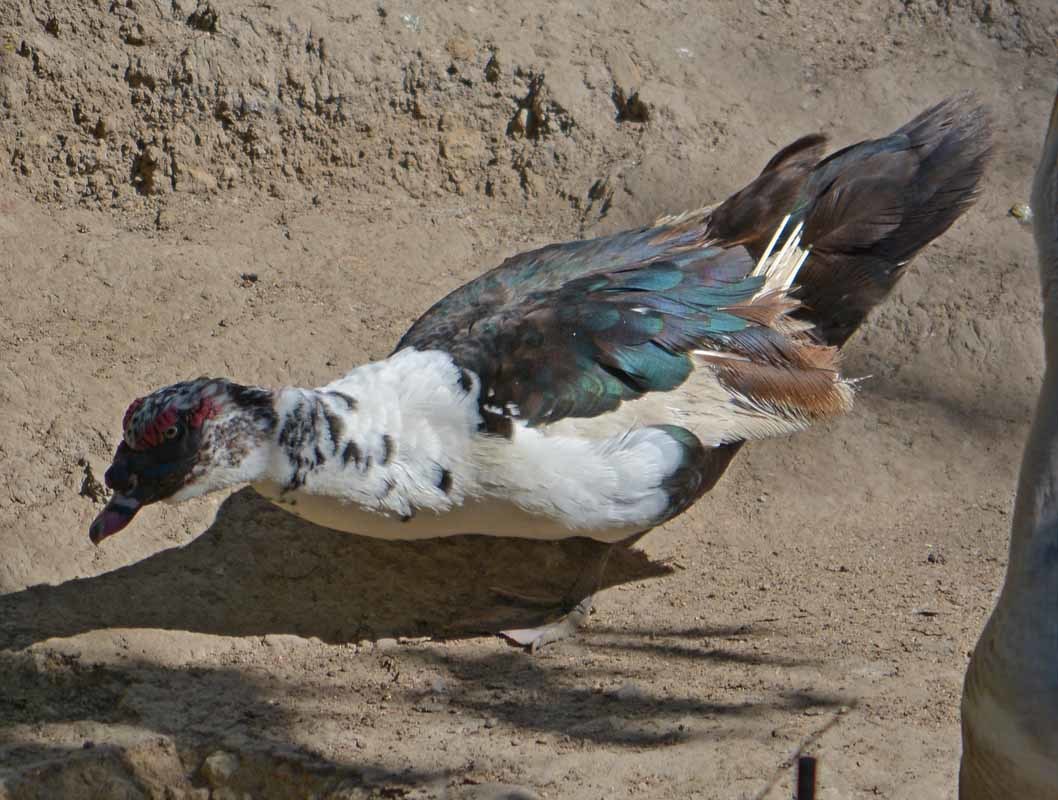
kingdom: Animalia
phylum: Chordata
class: Aves
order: Anseriformes
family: Anatidae
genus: Cairina
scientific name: Cairina moschata
